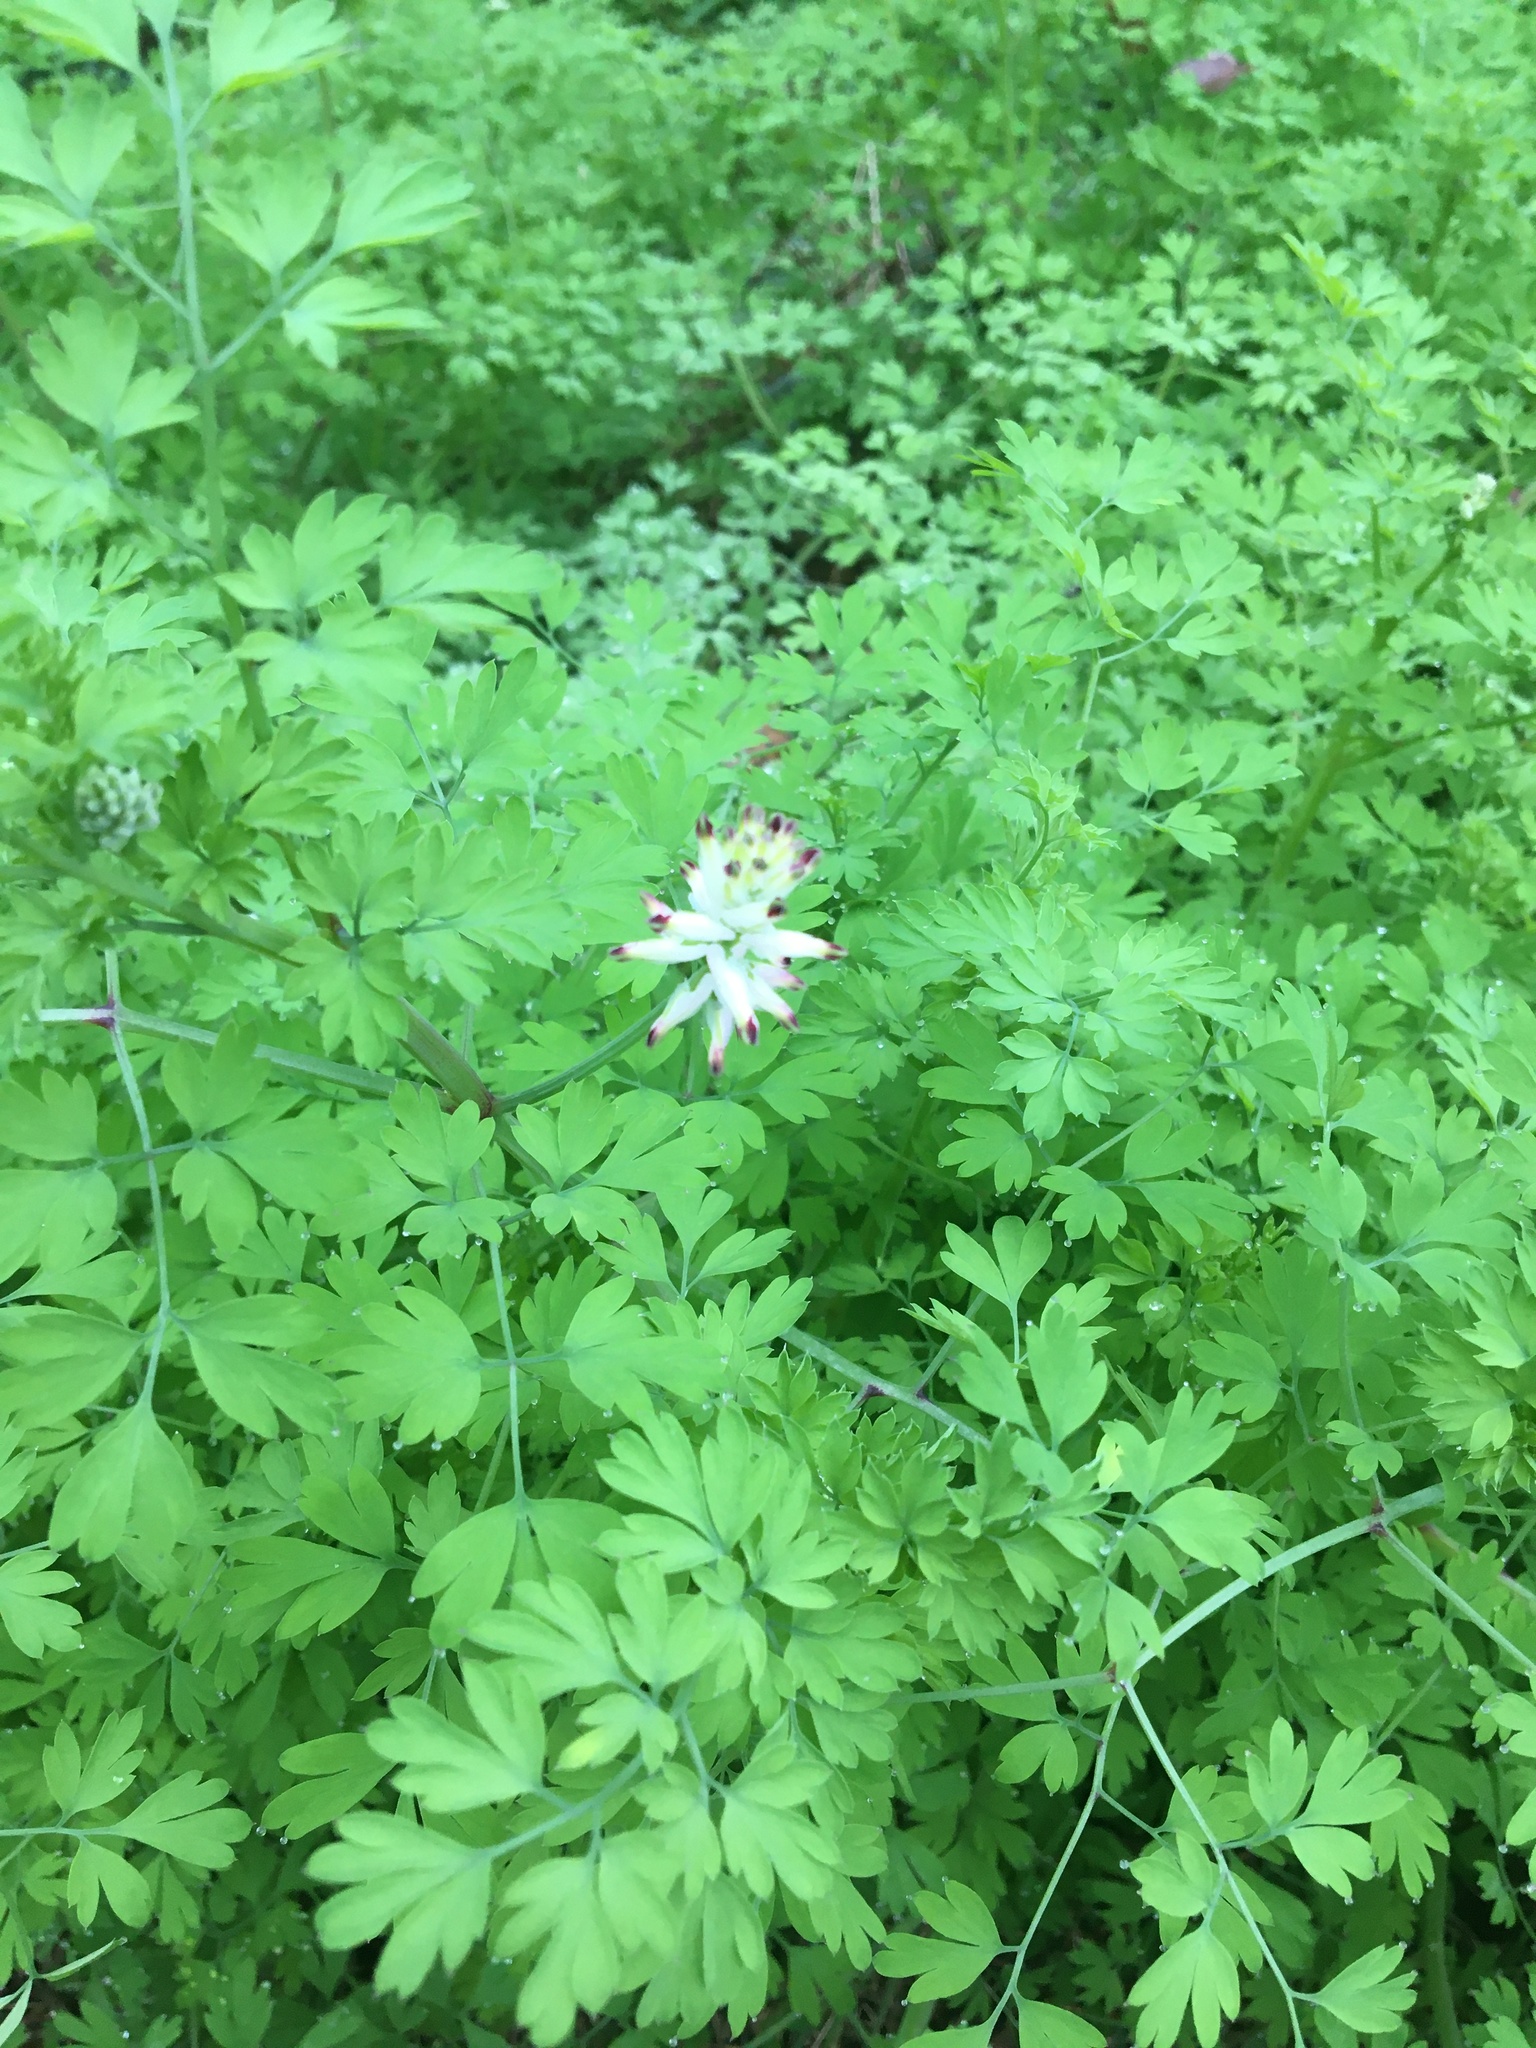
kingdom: Plantae
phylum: Tracheophyta
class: Magnoliopsida
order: Ranunculales
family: Papaveraceae
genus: Fumaria
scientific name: Fumaria capreolata
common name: White ramping-fumitory
